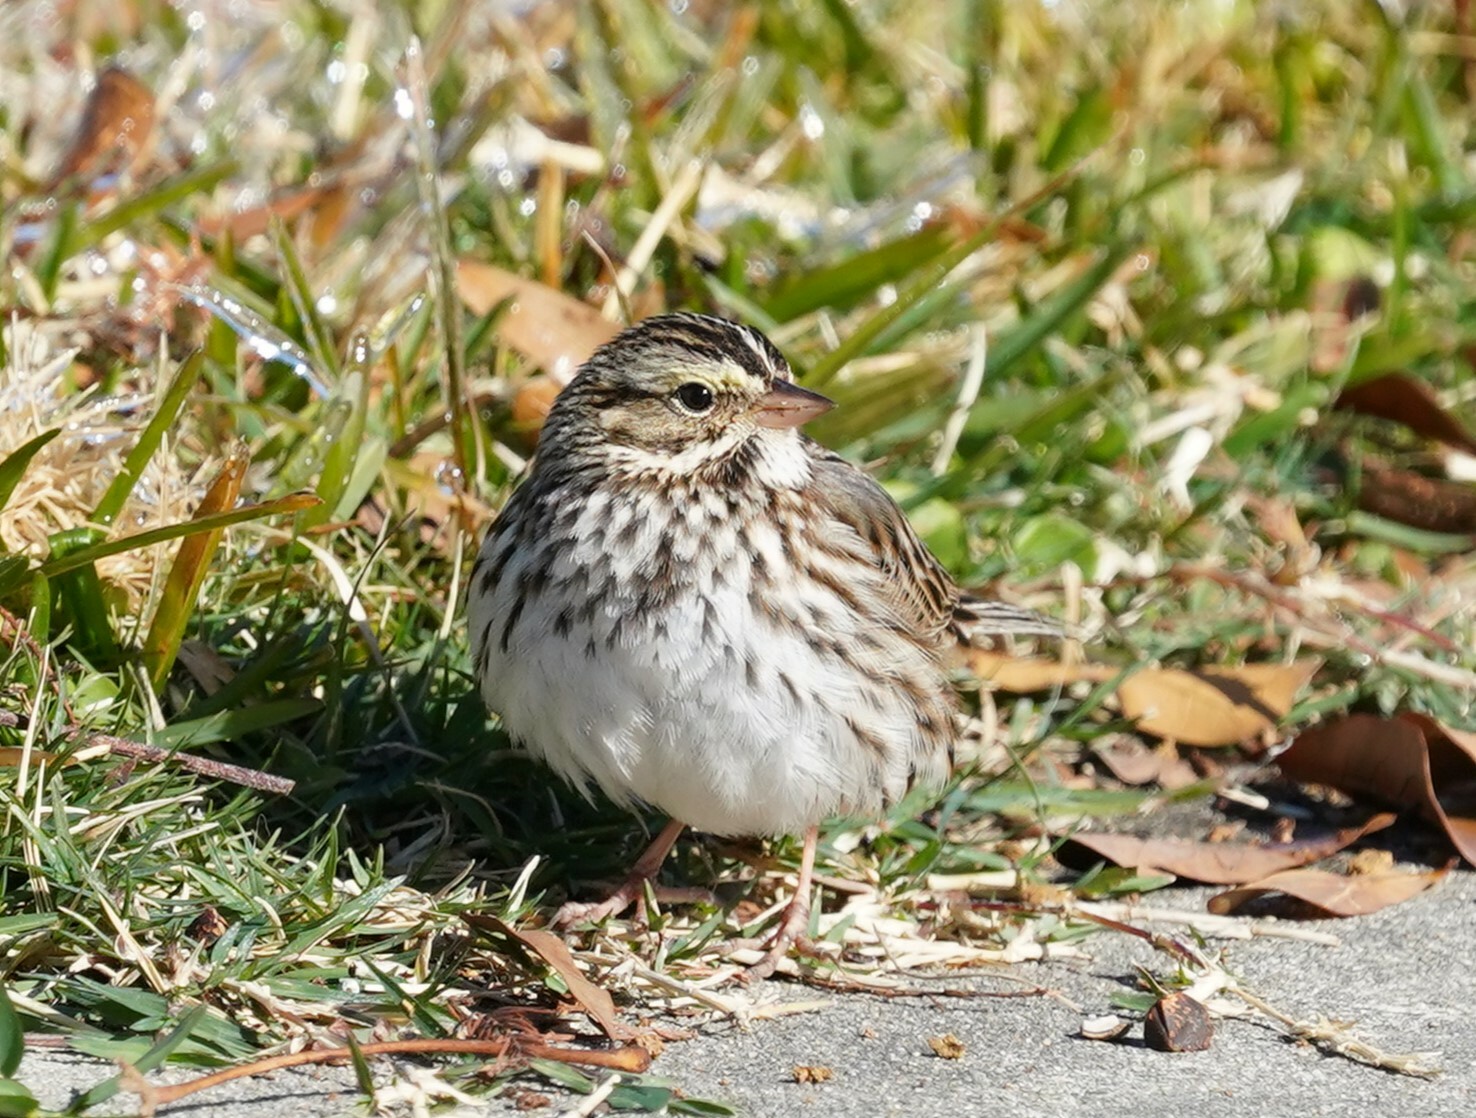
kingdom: Animalia
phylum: Chordata
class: Aves
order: Passeriformes
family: Passerellidae
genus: Passerculus
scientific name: Passerculus sandwichensis
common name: Savannah sparrow
